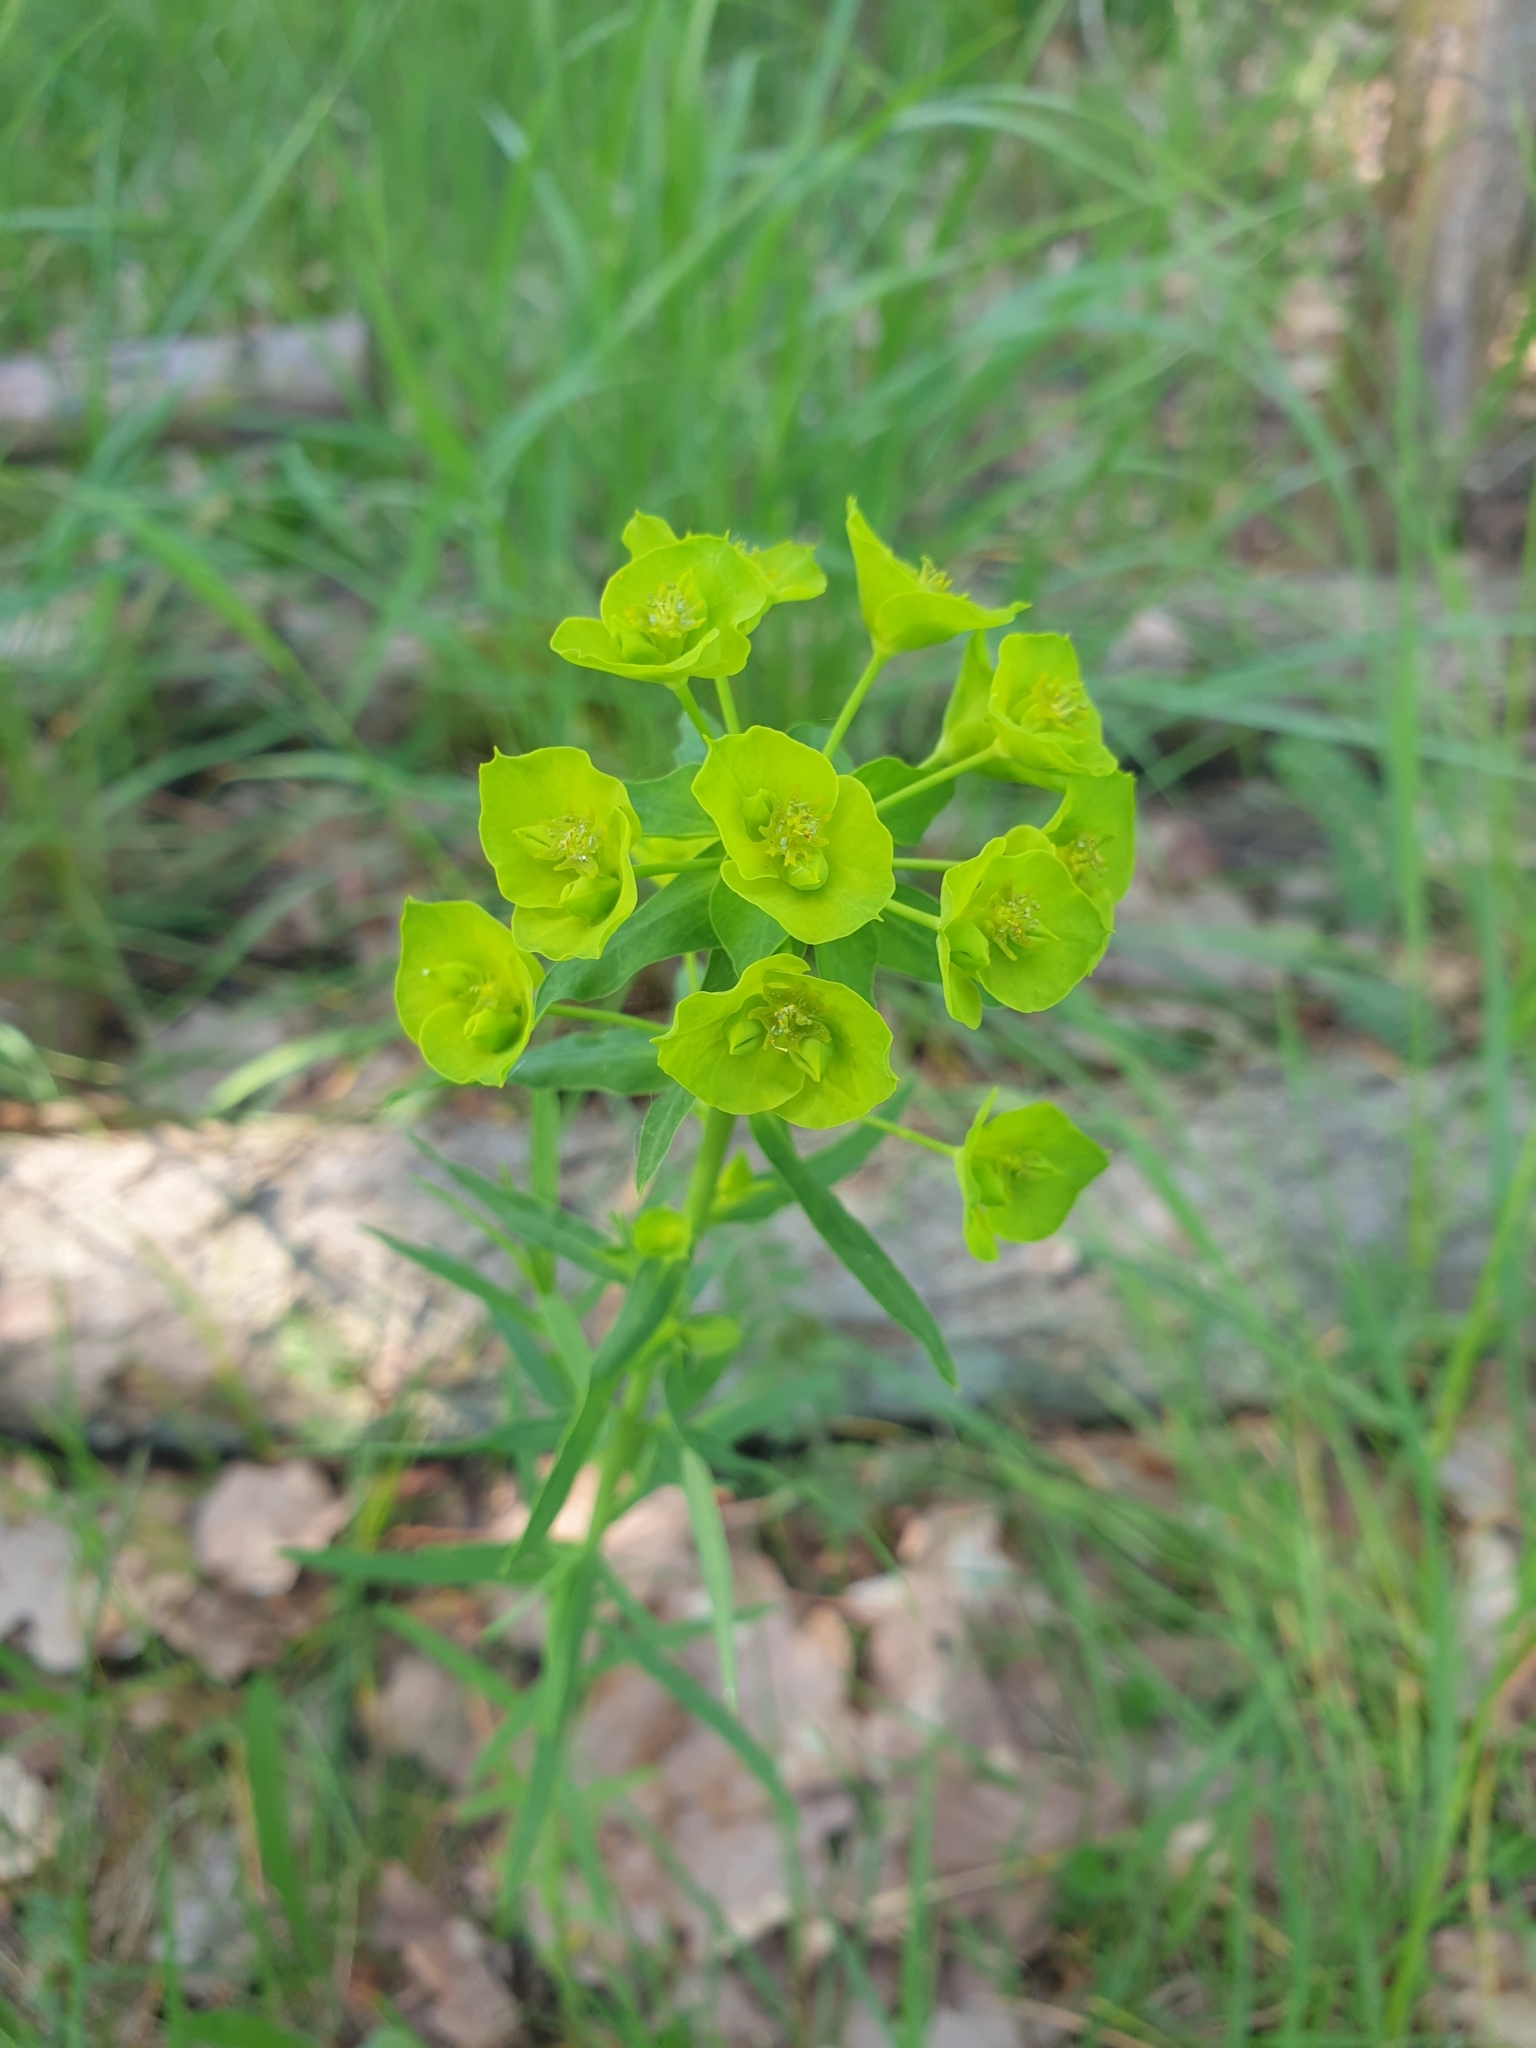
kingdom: Plantae
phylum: Tracheophyta
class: Magnoliopsida
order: Malpighiales
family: Euphorbiaceae
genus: Euphorbia
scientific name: Euphorbia esula
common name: Leafy spurge
